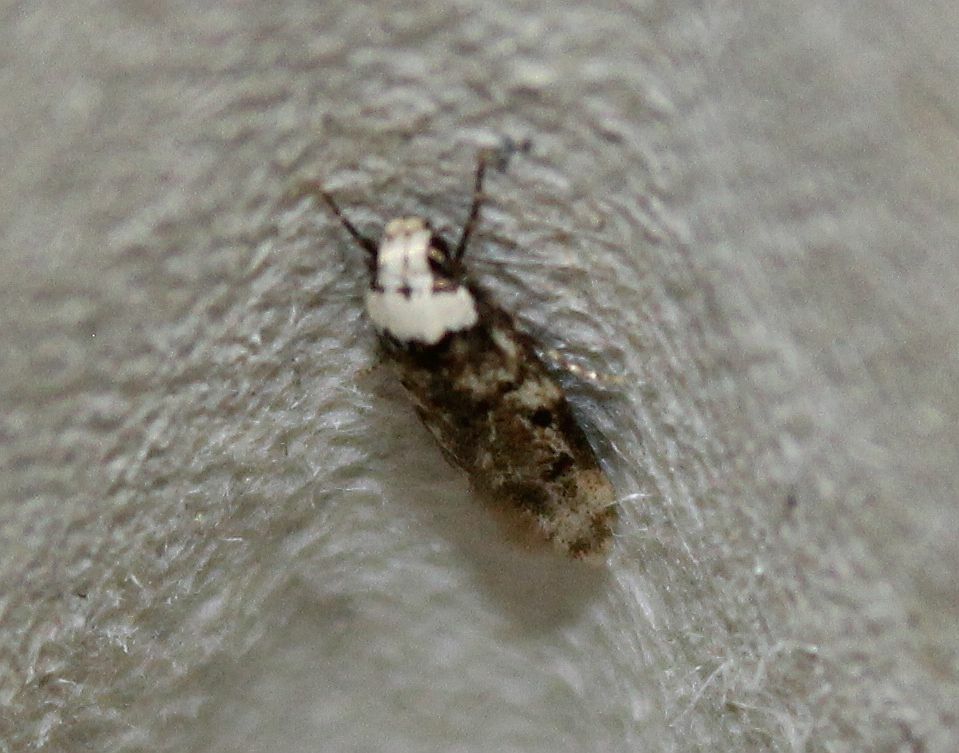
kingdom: Animalia
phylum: Arthropoda
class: Insecta
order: Lepidoptera
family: Oecophoridae
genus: Endrosis
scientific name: Endrosis sarcitrella
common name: White-shouldered house moth
